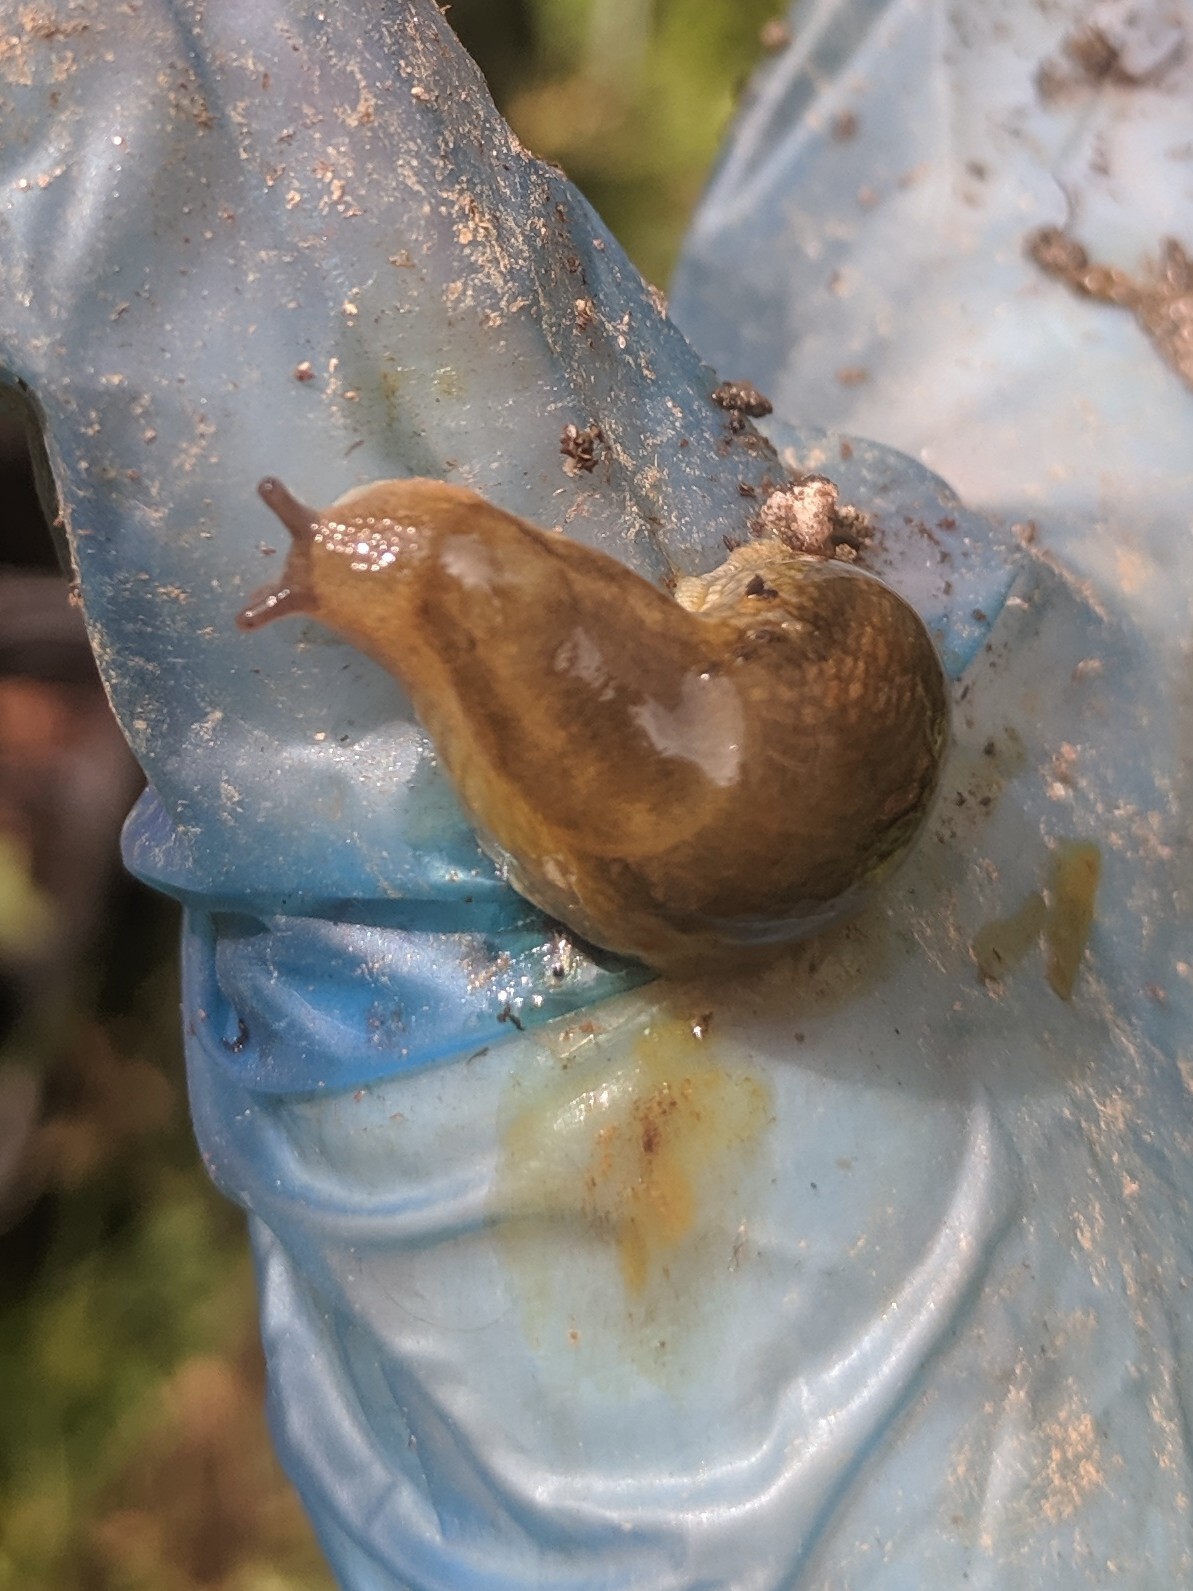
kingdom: Animalia
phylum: Mollusca
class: Gastropoda
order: Stylommatophora
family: Arionidae
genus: Arion
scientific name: Arion subfuscus
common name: Dusky arion
